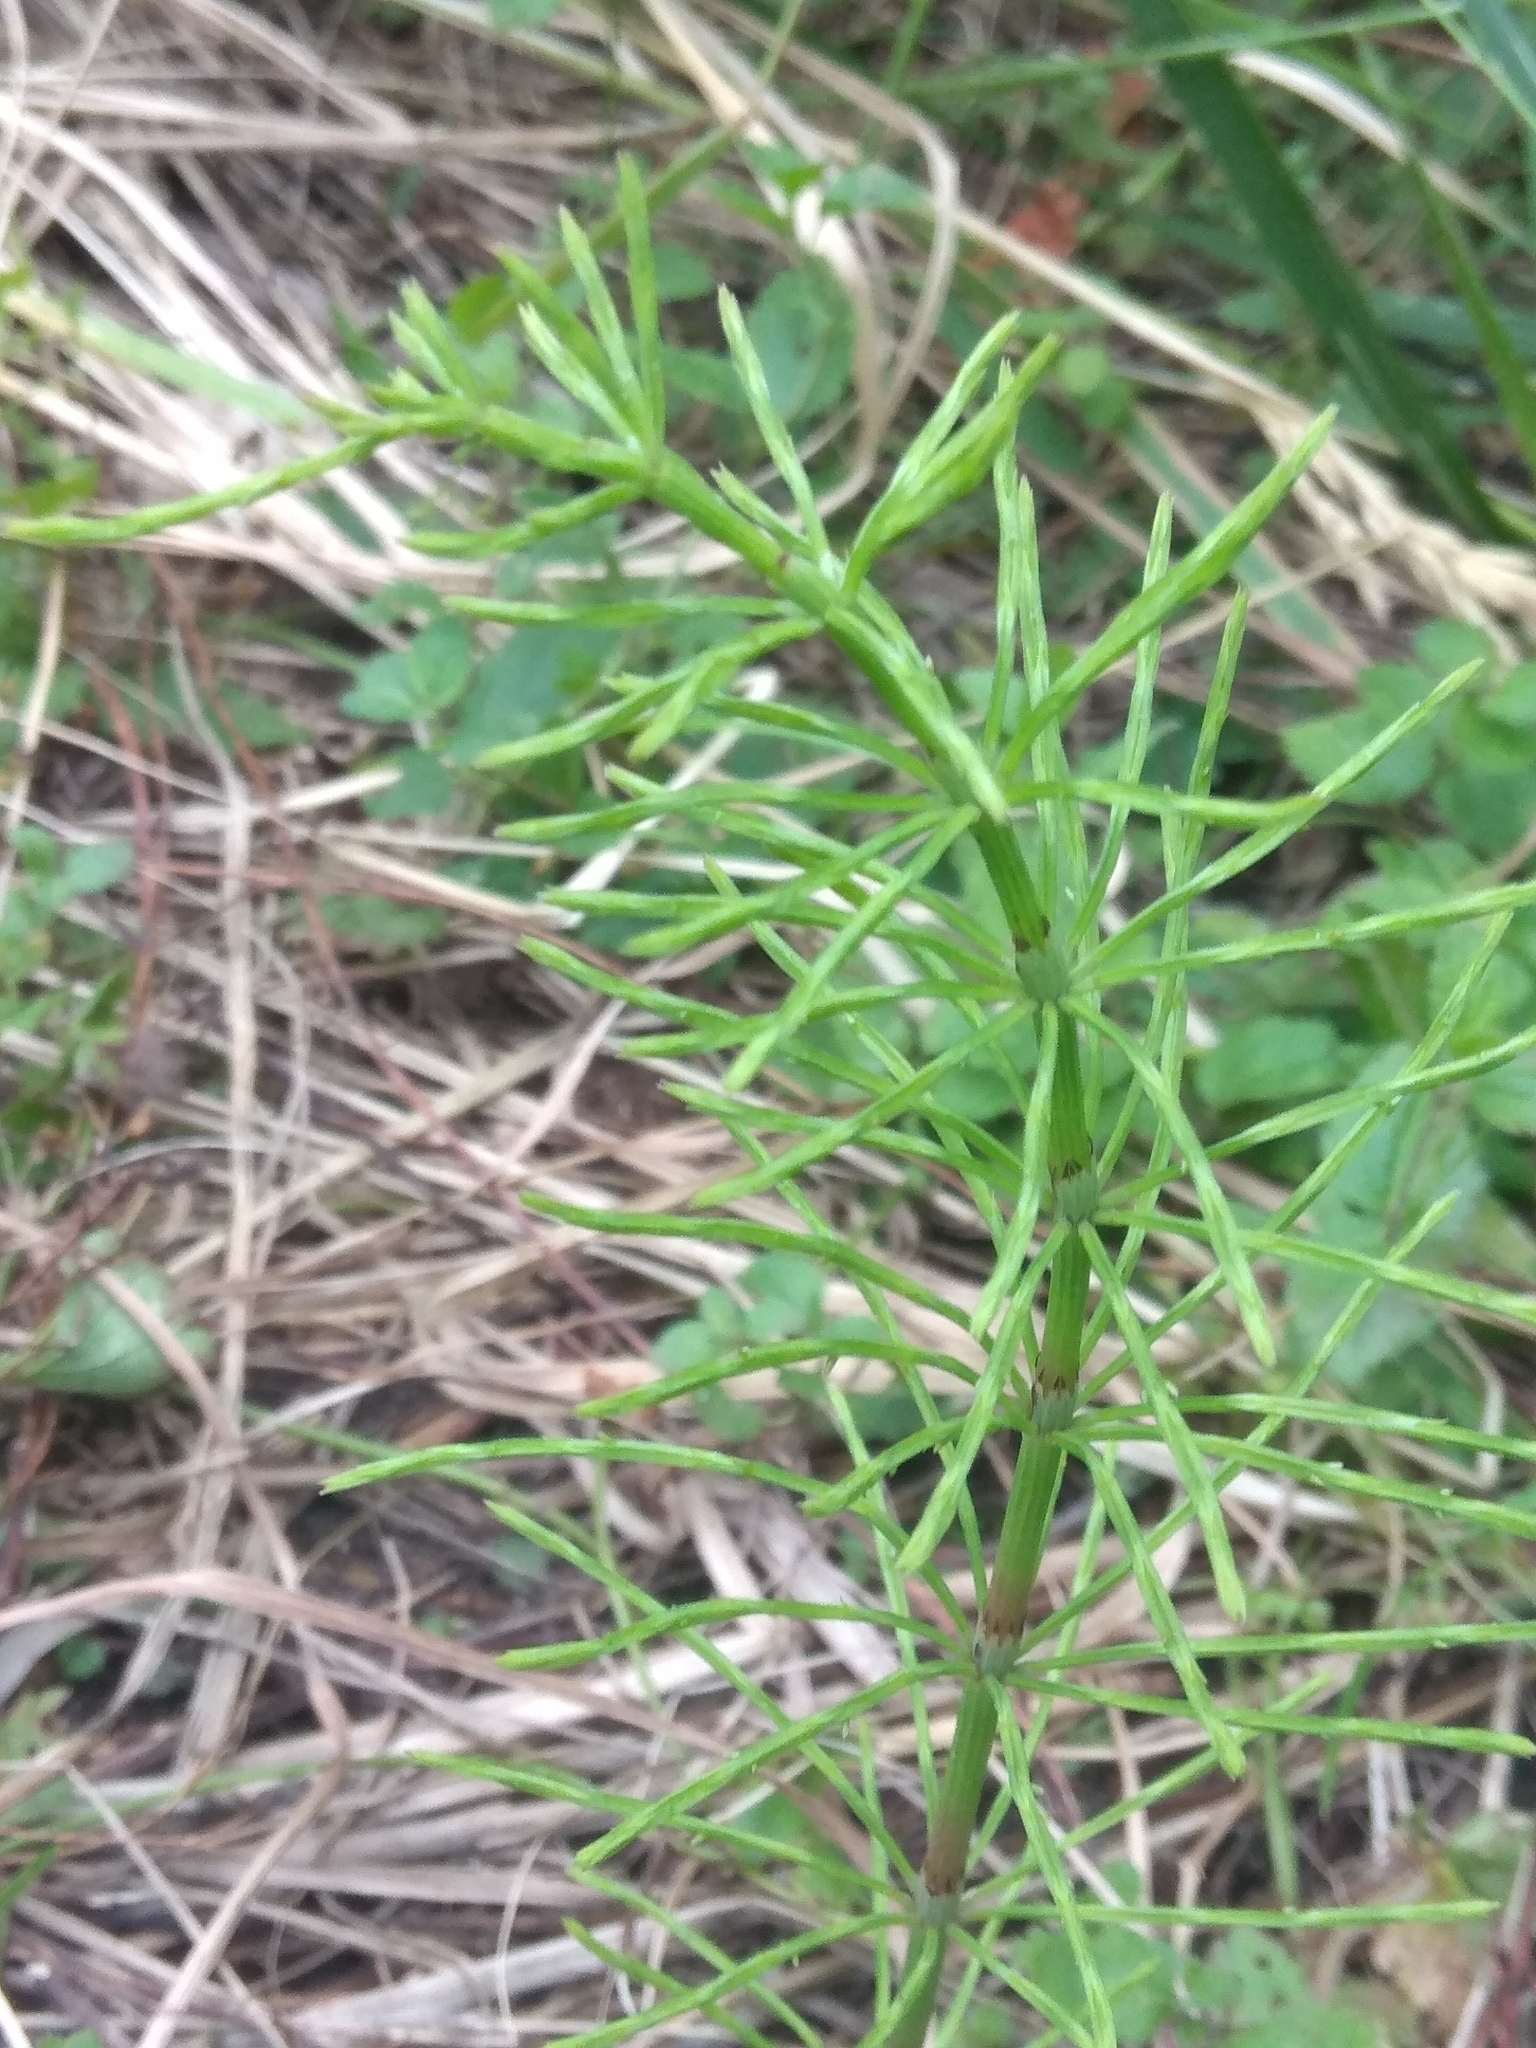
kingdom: Plantae
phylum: Tracheophyta
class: Polypodiopsida
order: Equisetales
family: Equisetaceae
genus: Equisetum
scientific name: Equisetum arvense
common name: Field horsetail
